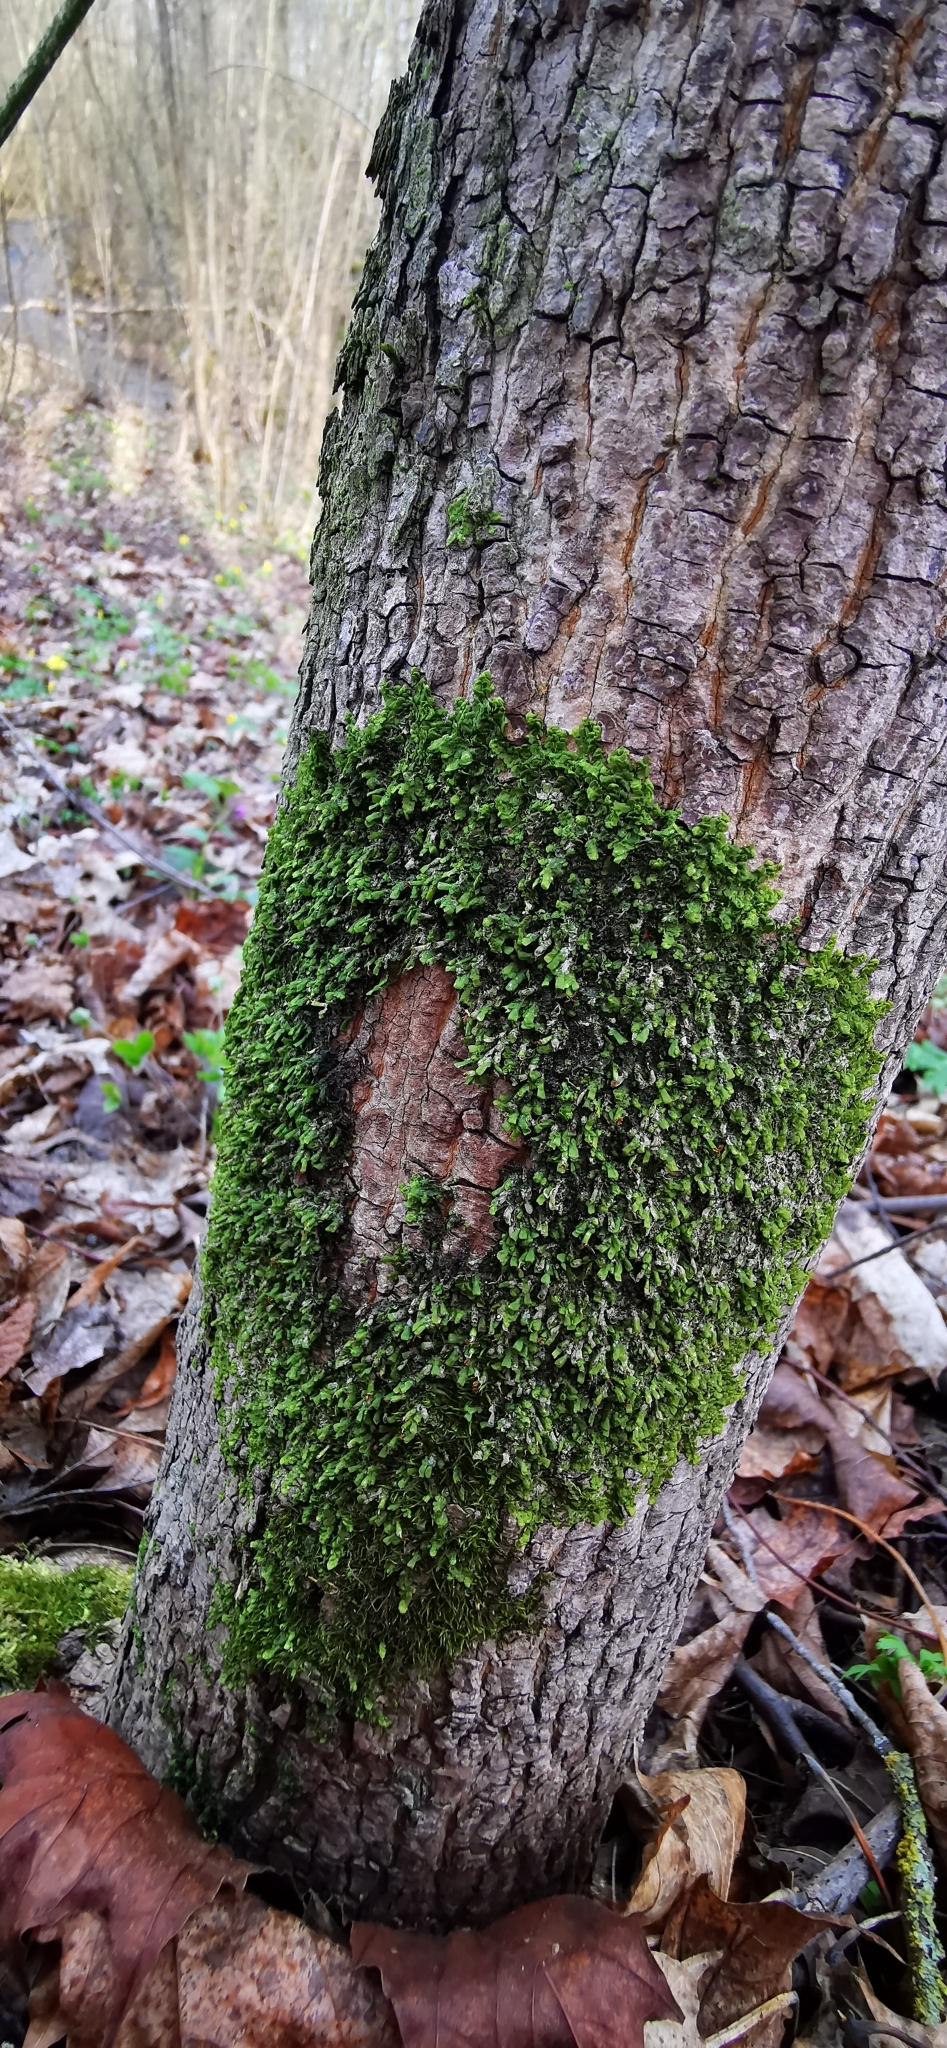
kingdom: Plantae
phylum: Marchantiophyta
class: Jungermanniopsida
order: Porellales
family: Radulaceae
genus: Radula
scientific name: Radula complanata
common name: Flat-leaved scalewort
